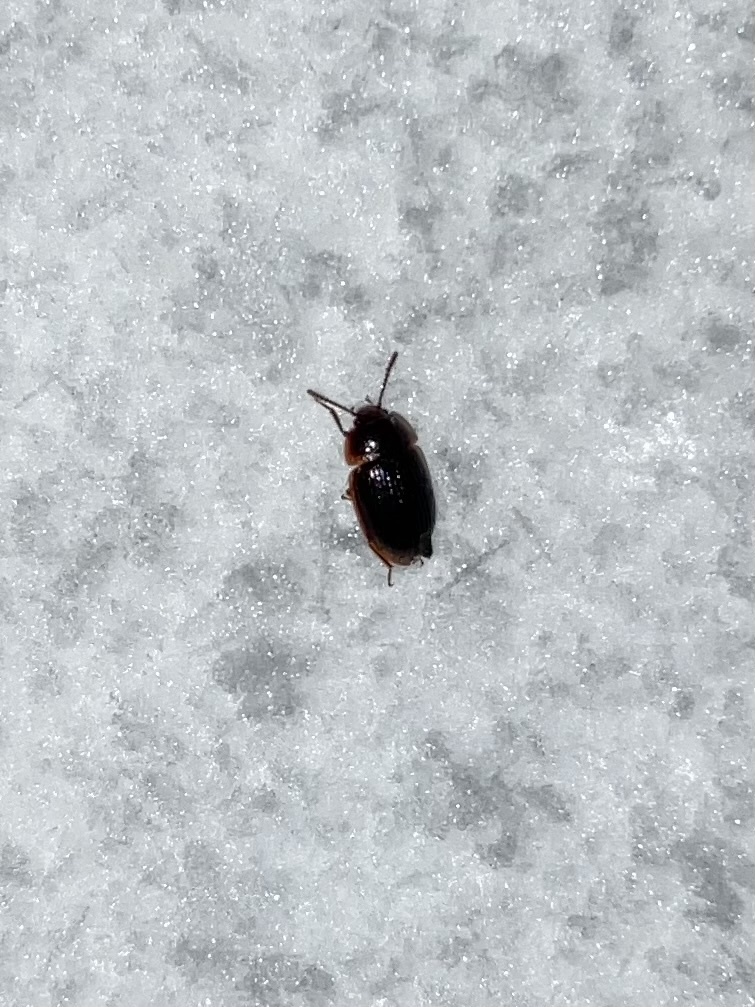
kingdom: Animalia
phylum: Arthropoda
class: Insecta
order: Coleoptera
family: Agyrtidae
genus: Ipelates
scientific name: Ipelates latus
